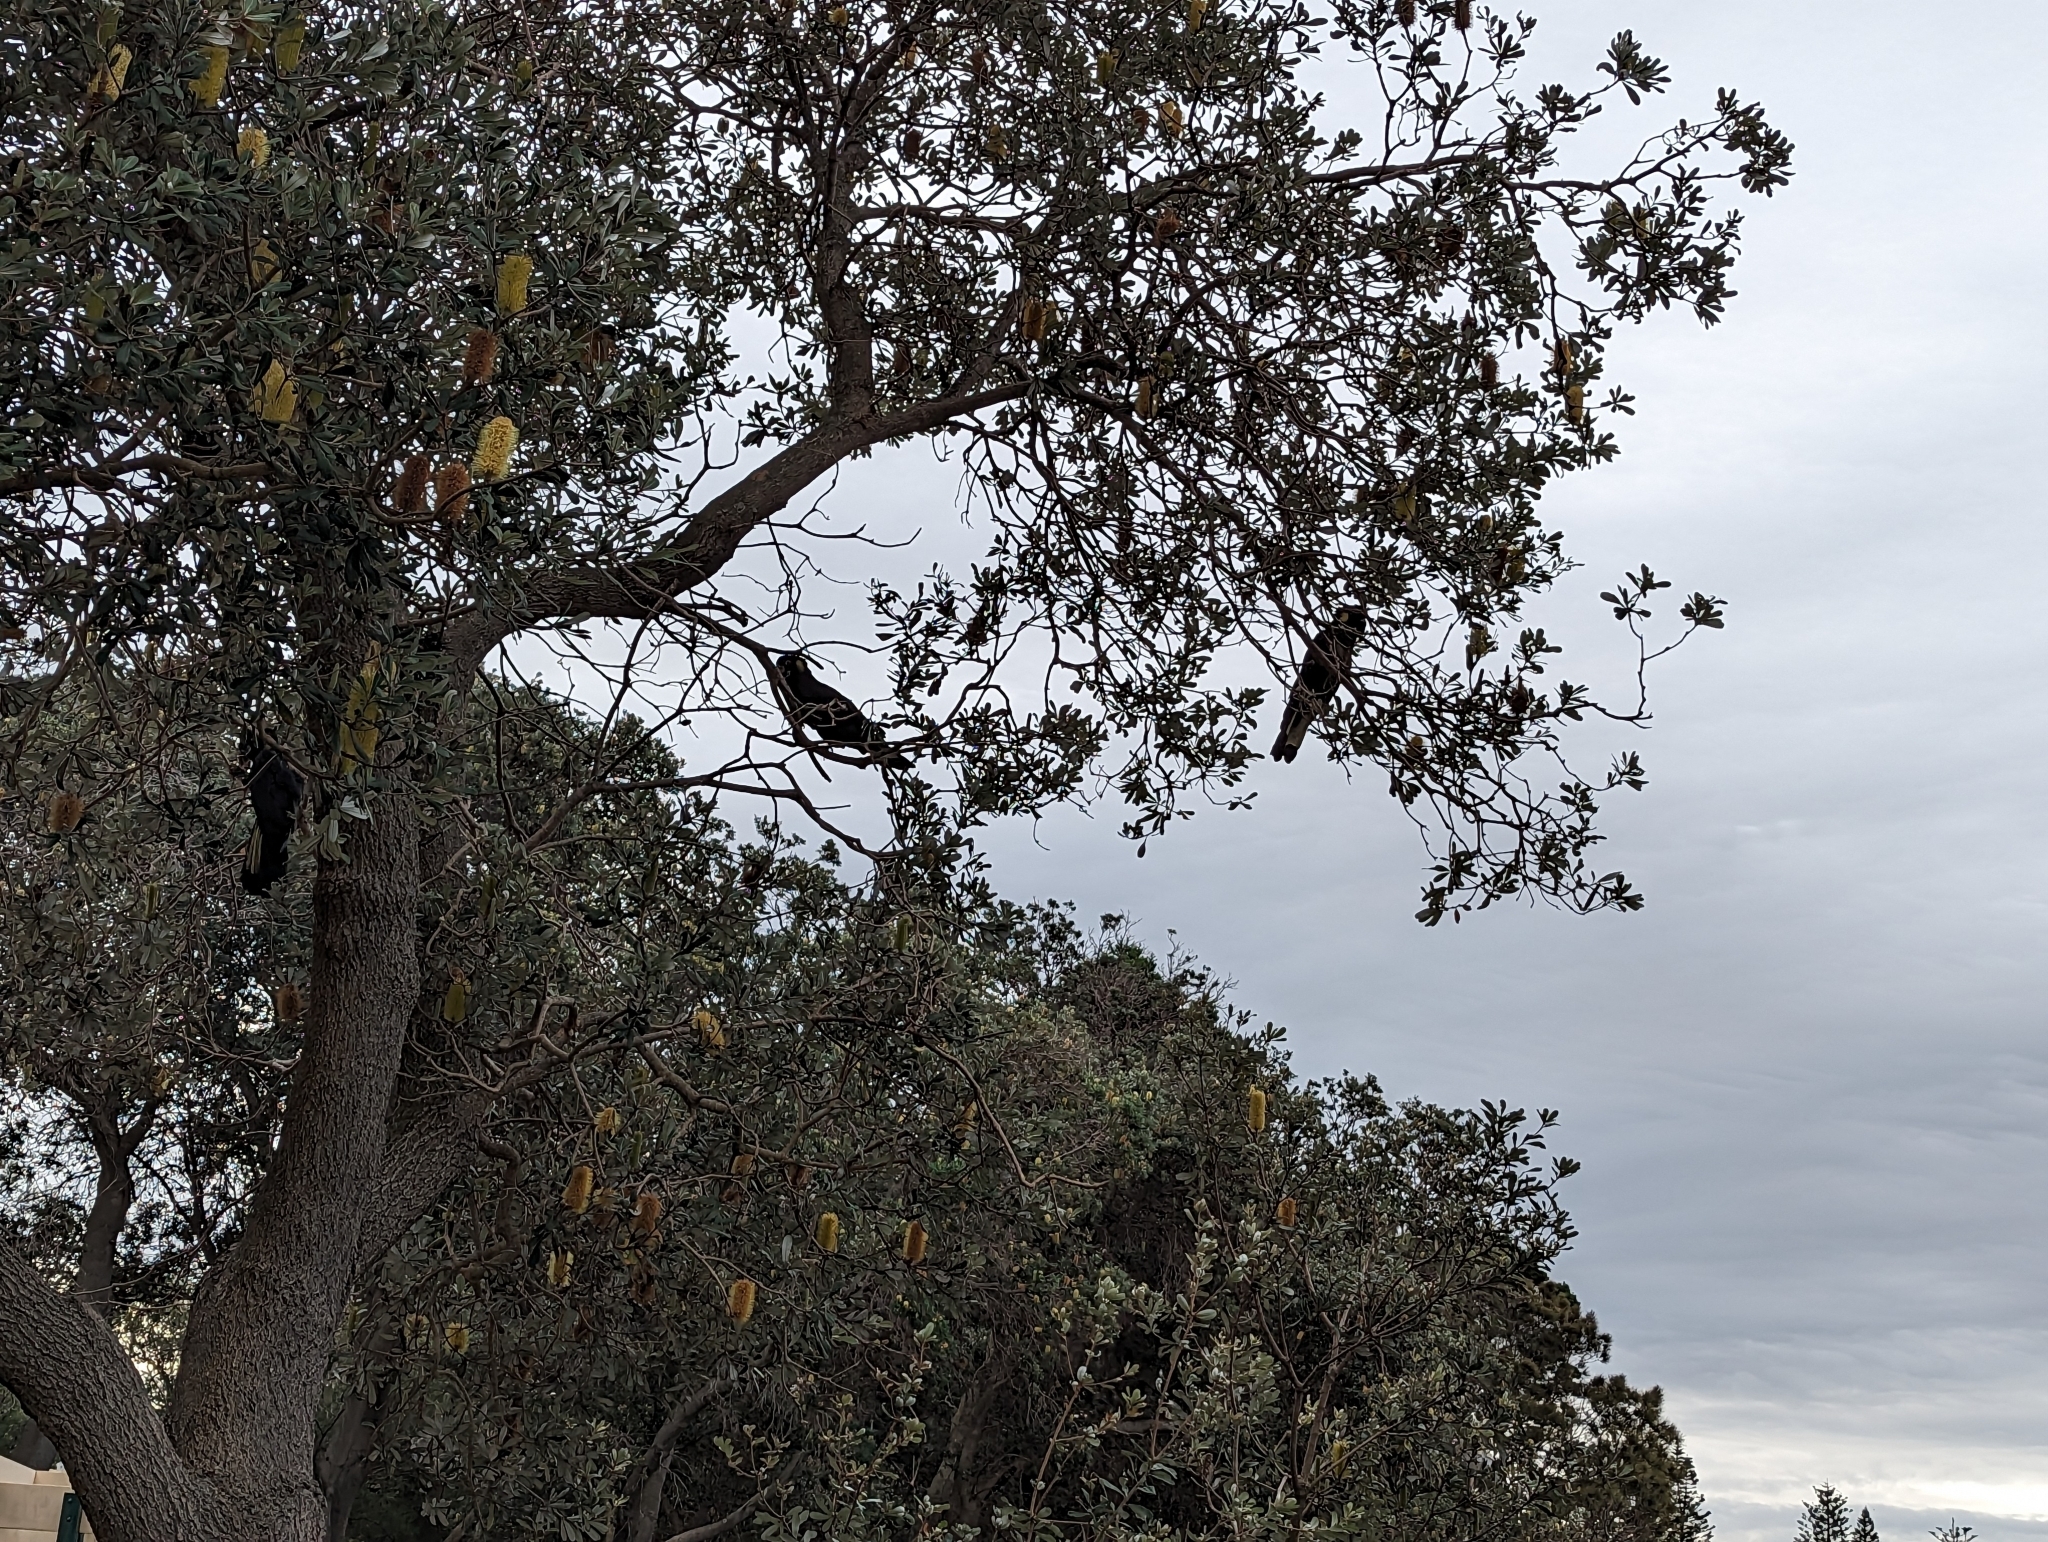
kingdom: Animalia
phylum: Chordata
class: Aves
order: Psittaciformes
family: Cacatuidae
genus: Zanda
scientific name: Zanda funerea
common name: Yellow-tailed black-cockatoo
